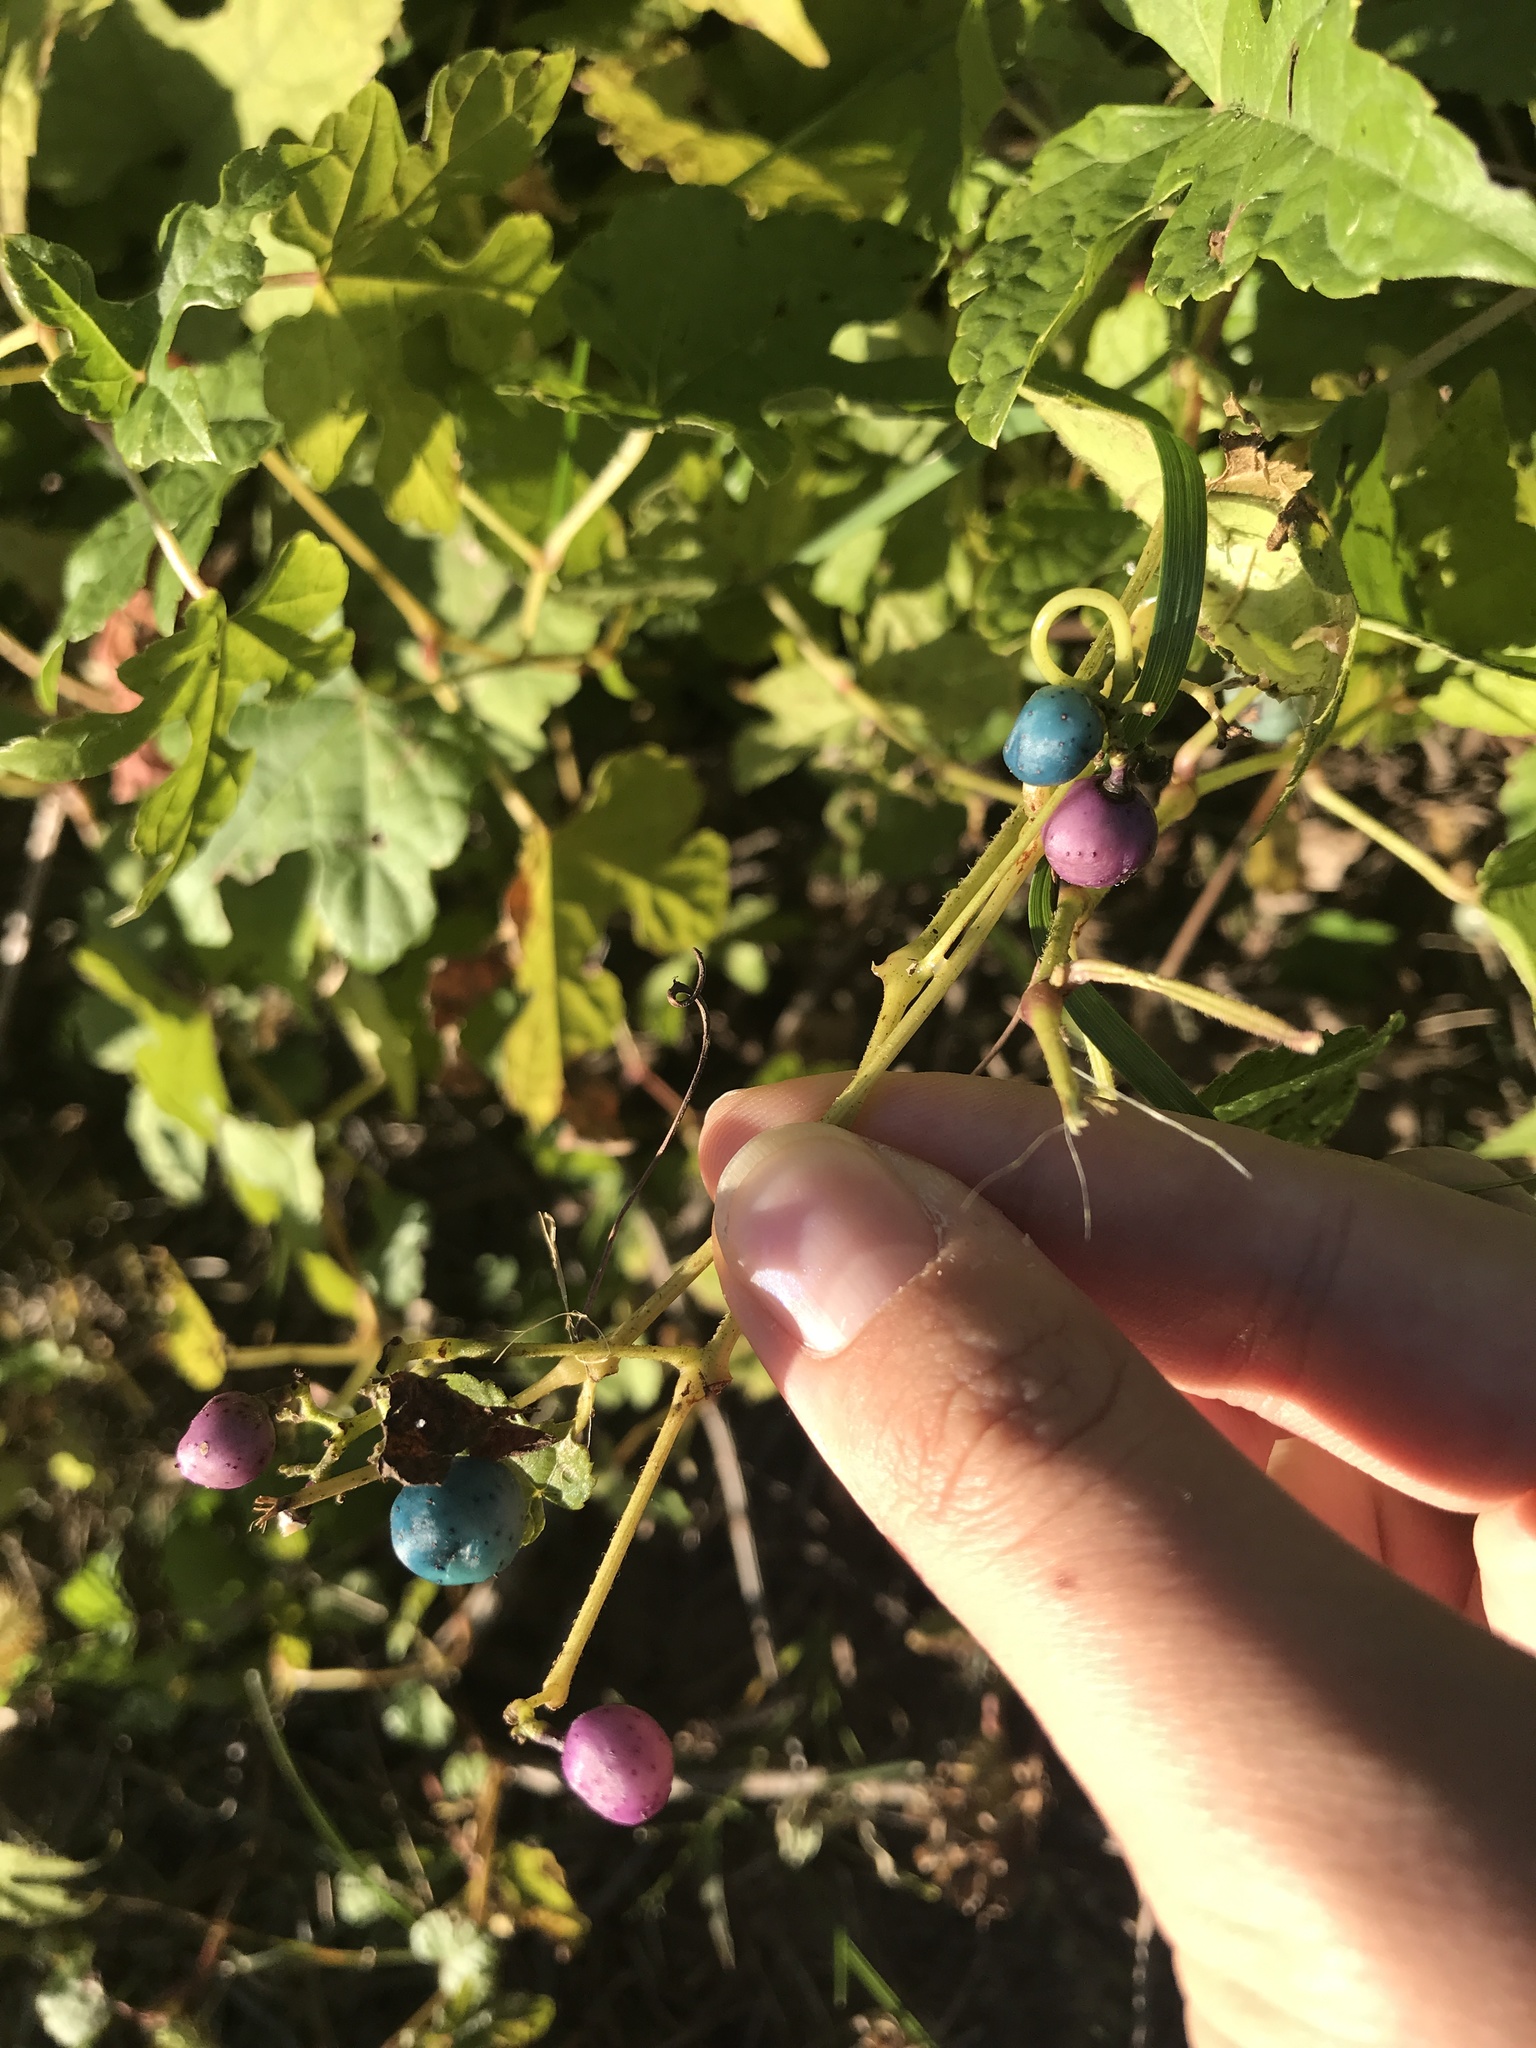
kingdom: Plantae
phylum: Tracheophyta
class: Magnoliopsida
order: Vitales
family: Vitaceae
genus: Ampelopsis
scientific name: Ampelopsis glandulosa
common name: Amur peppervine
